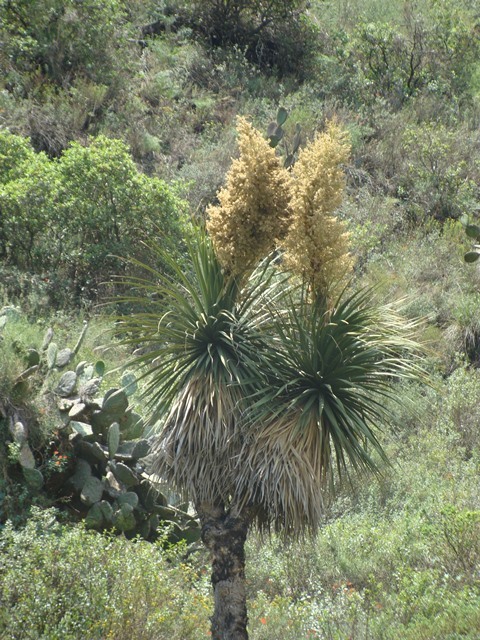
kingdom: Plantae
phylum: Tracheophyta
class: Liliopsida
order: Asparagales
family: Asparagaceae
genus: Nolina
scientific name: Nolina parviflora
